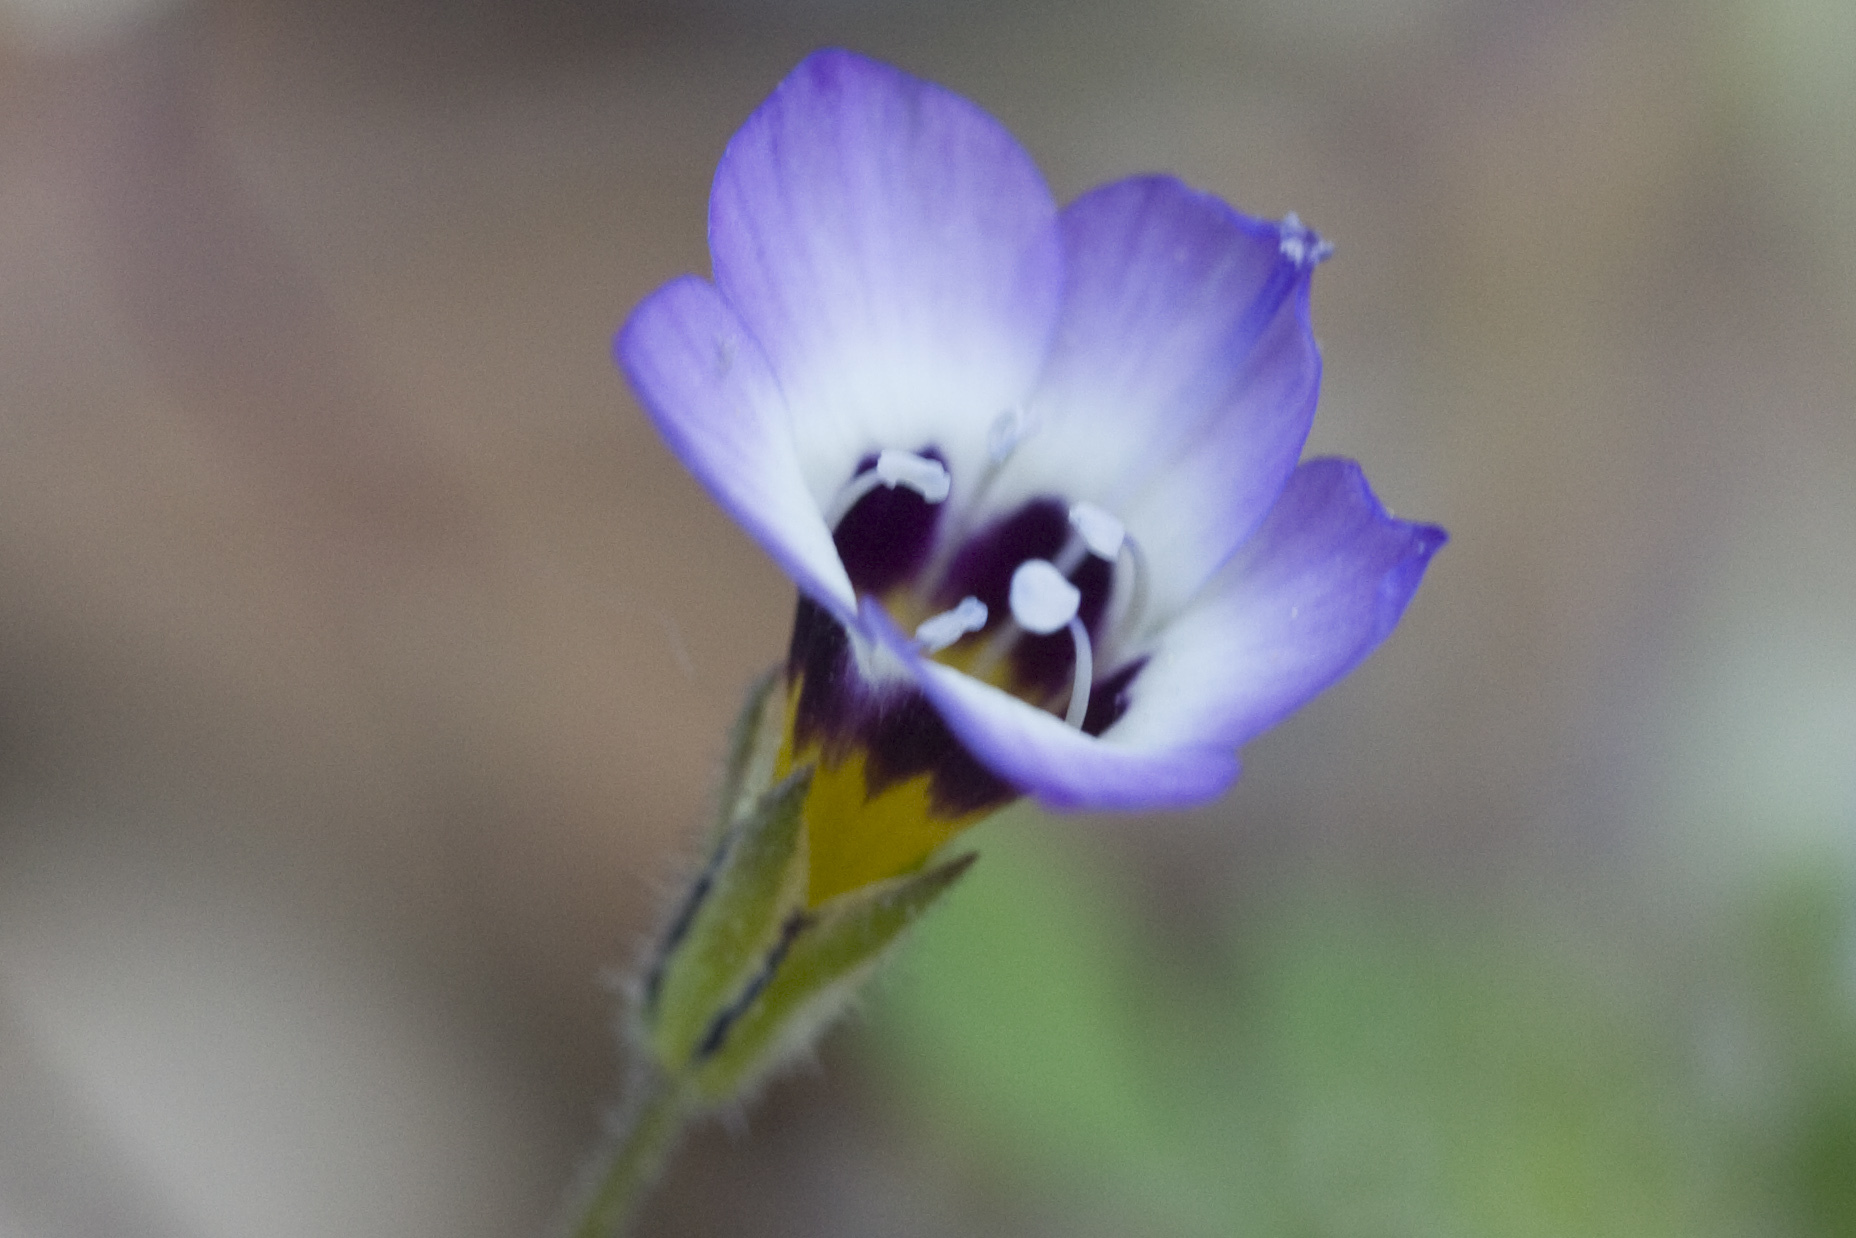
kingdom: Plantae
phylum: Tracheophyta
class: Magnoliopsida
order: Ericales
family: Polemoniaceae
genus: Gilia
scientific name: Gilia tricolor
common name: Bird's-eyes
